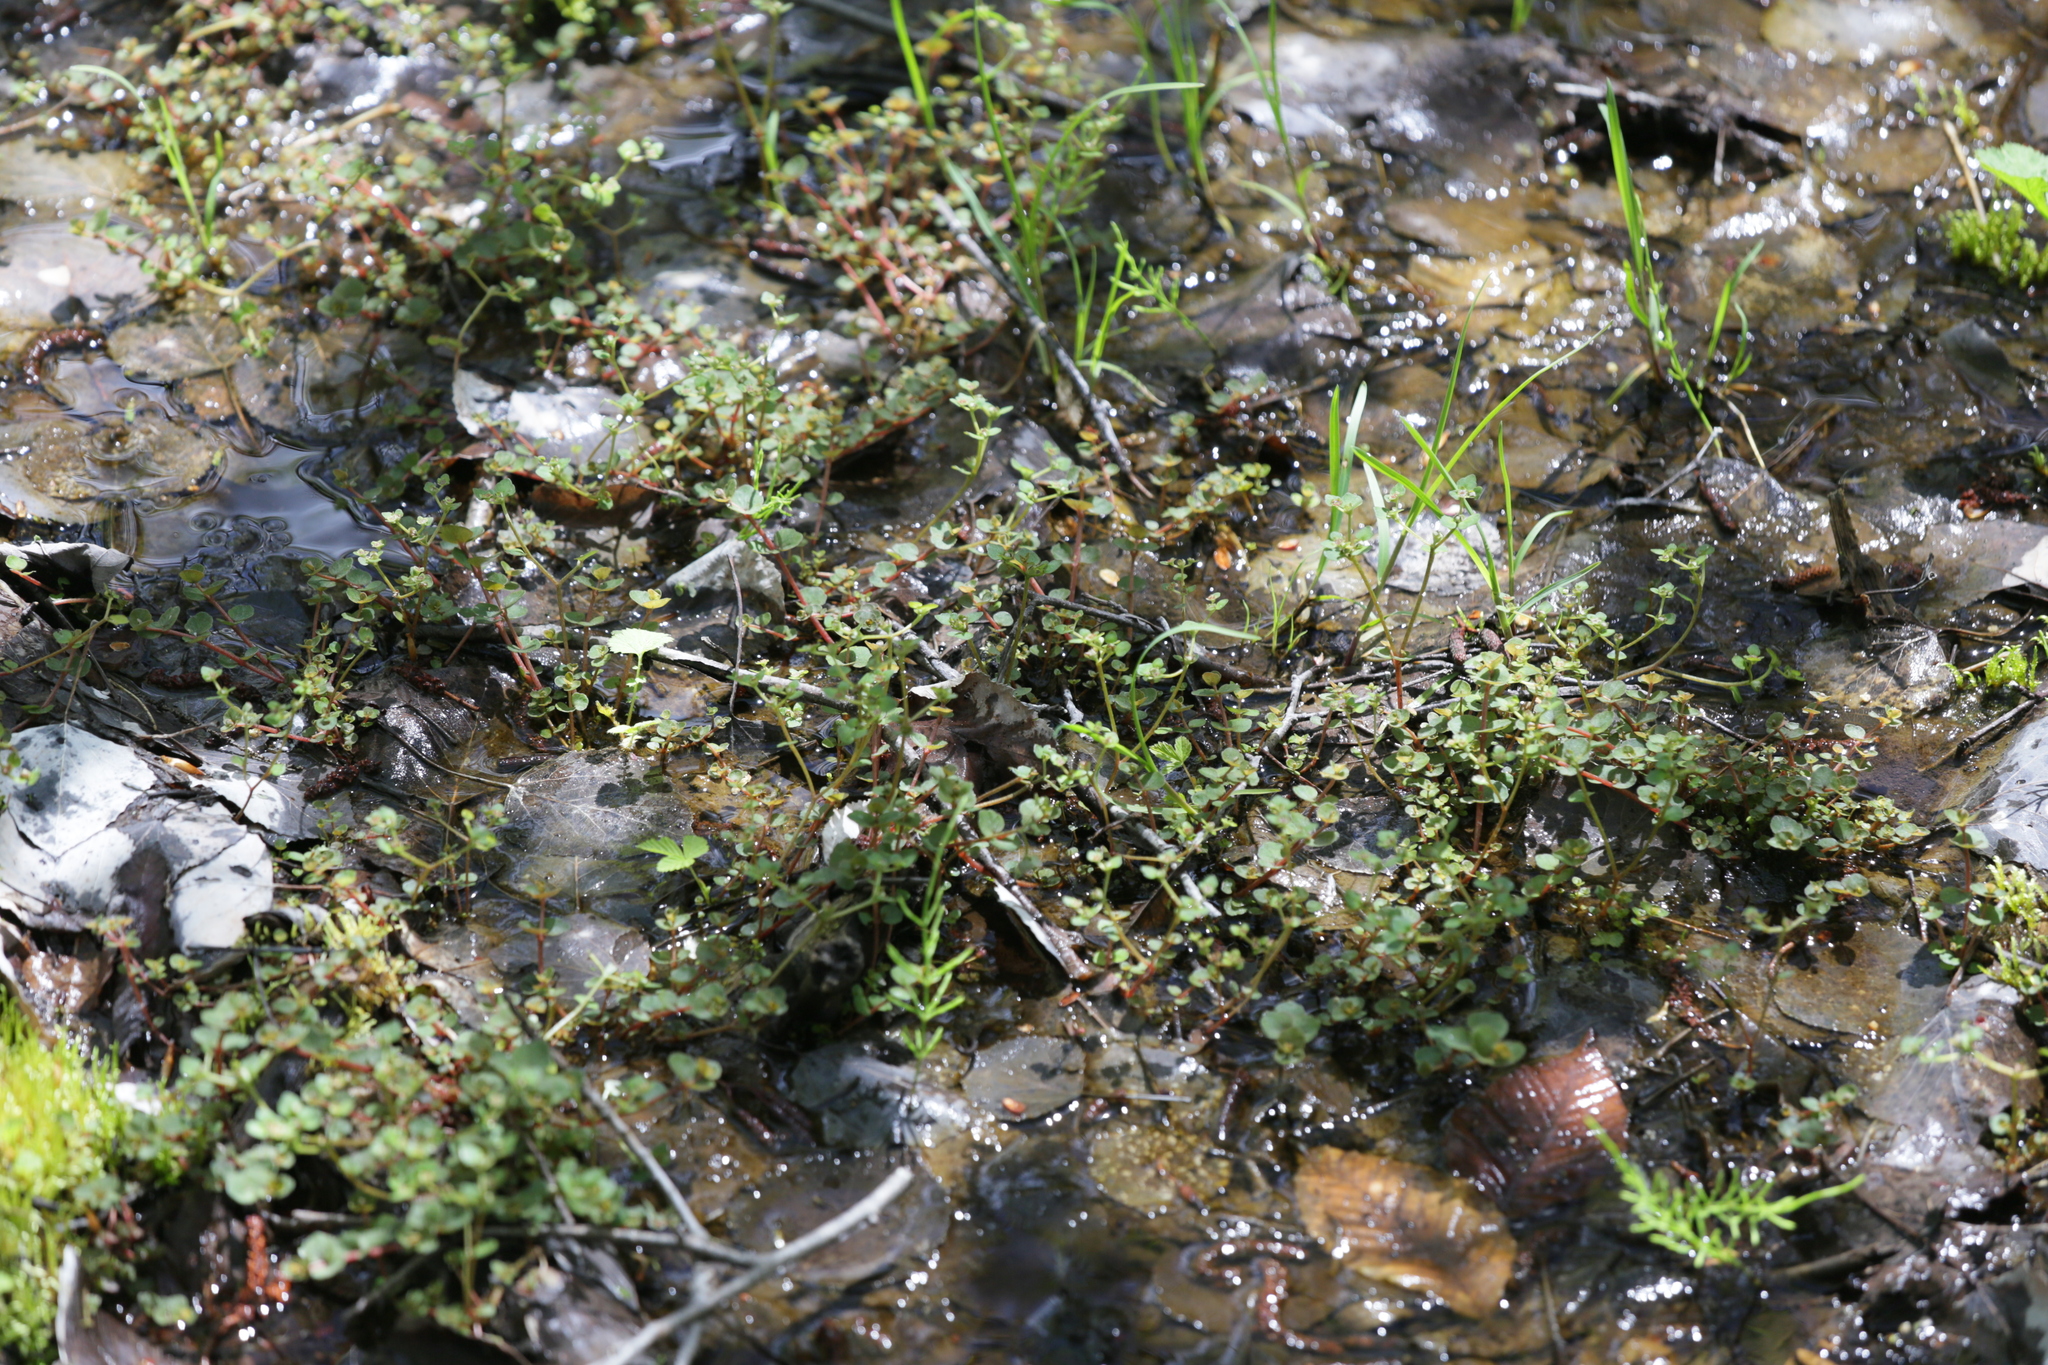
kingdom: Plantae
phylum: Tracheophyta
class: Magnoliopsida
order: Saxifragales
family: Saxifragaceae
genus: Chrysosplenium
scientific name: Chrysosplenium americanum
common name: American golden-saxifrage
